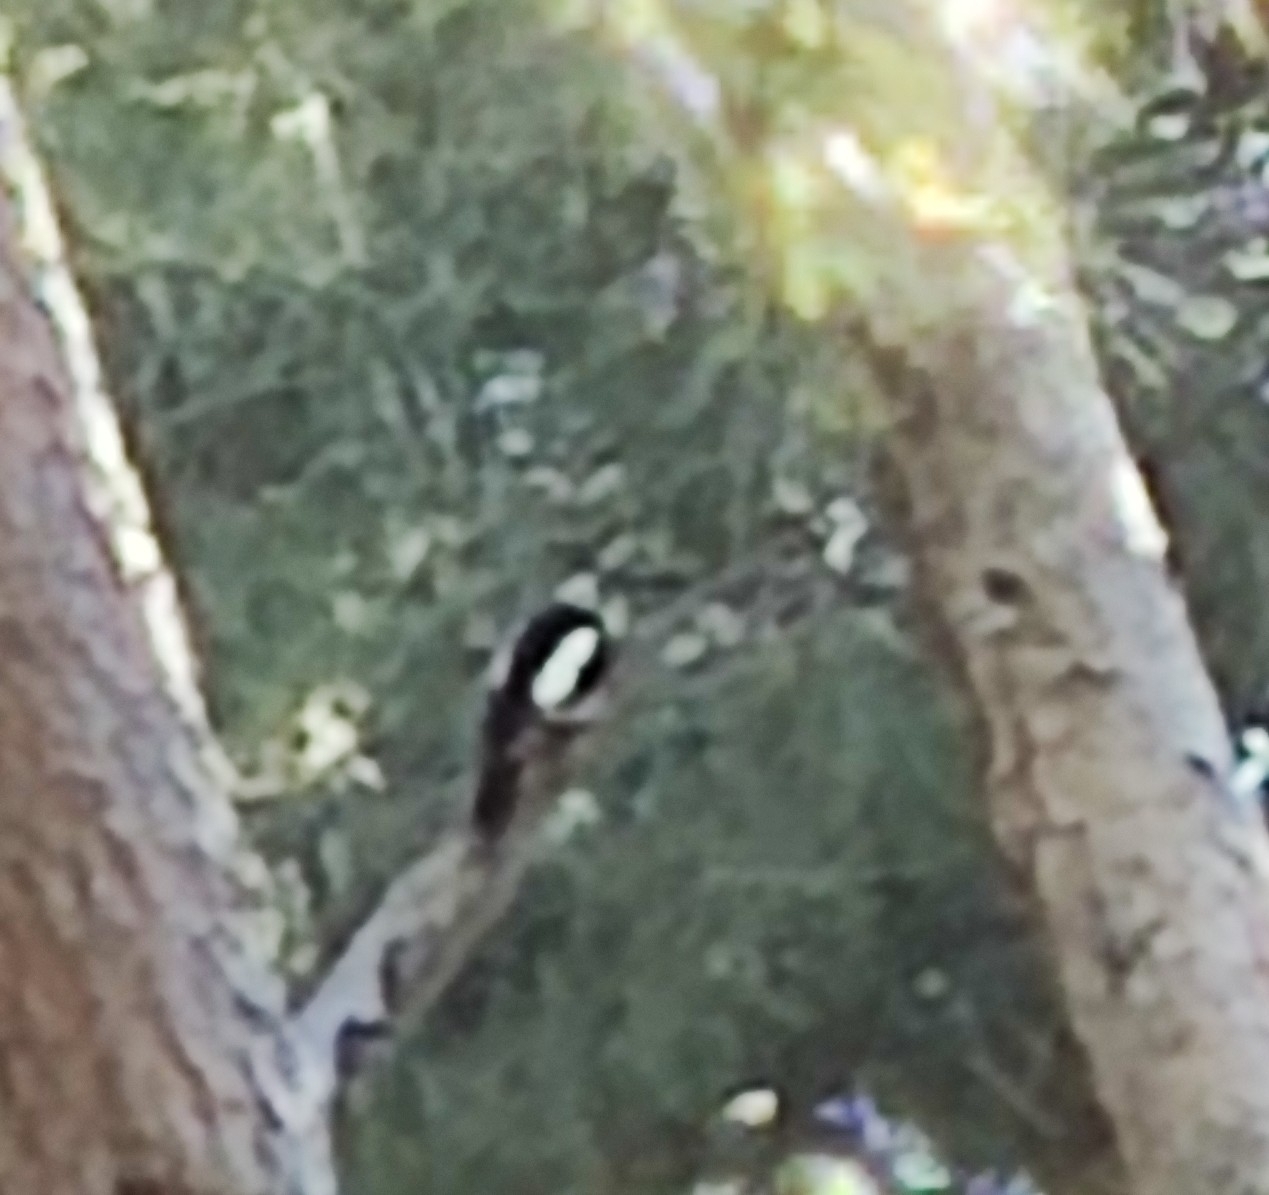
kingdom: Animalia
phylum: Chordata
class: Aves
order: Piciformes
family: Picidae
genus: Dendrocopos
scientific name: Dendrocopos major
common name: Great spotted woodpecker
